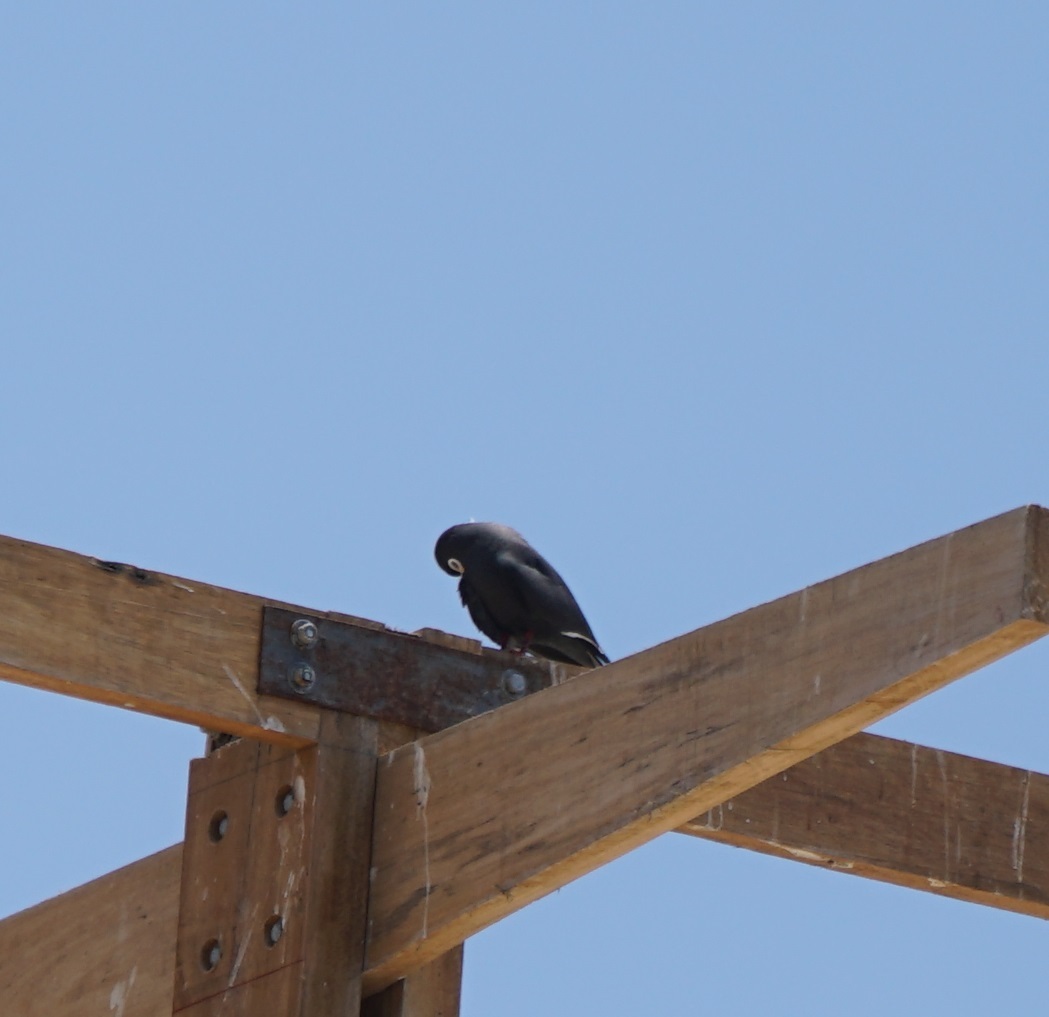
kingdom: Animalia
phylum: Chordata
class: Aves
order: Charadriiformes
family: Laridae
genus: Larosterna
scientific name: Larosterna inca
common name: Inca tern
